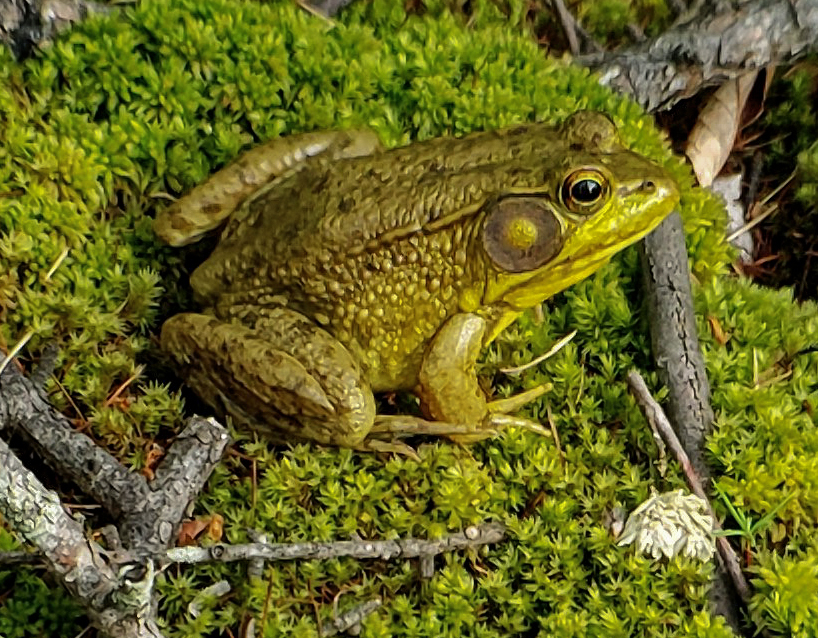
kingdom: Animalia
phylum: Chordata
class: Amphibia
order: Anura
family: Ranidae
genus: Lithobates
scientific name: Lithobates clamitans
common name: Green frog
